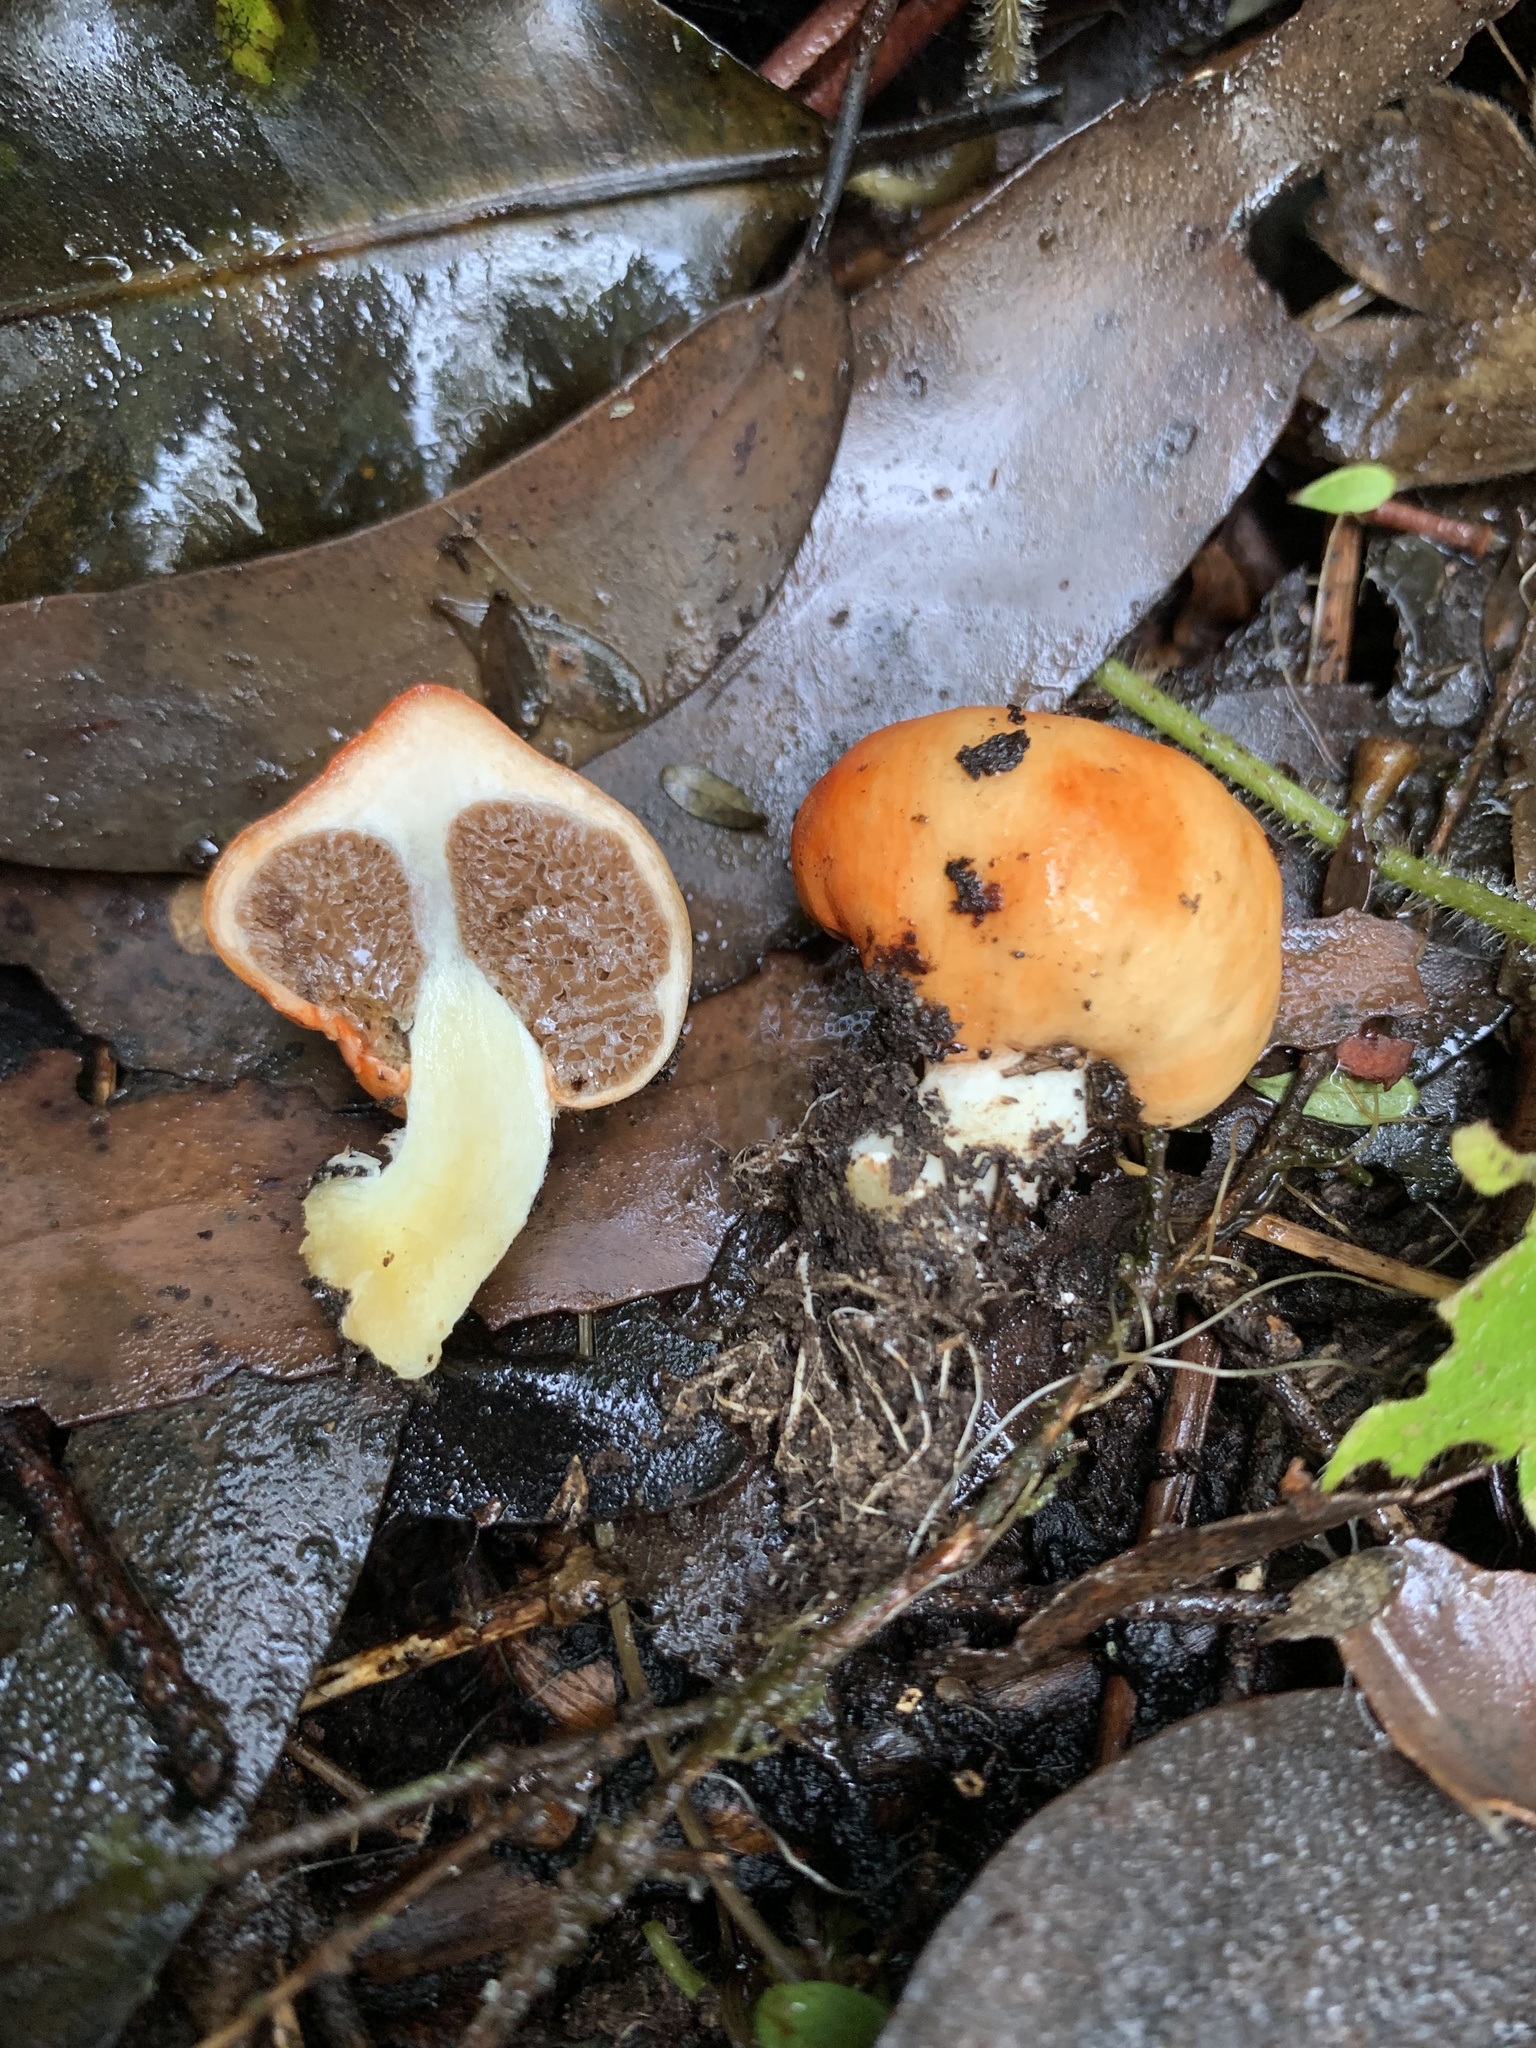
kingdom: Fungi
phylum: Basidiomycota
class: Agaricomycetes
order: Agaricales
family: Strophariaceae
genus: Leratiomyces
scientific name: Leratiomyces erythrocephalus
